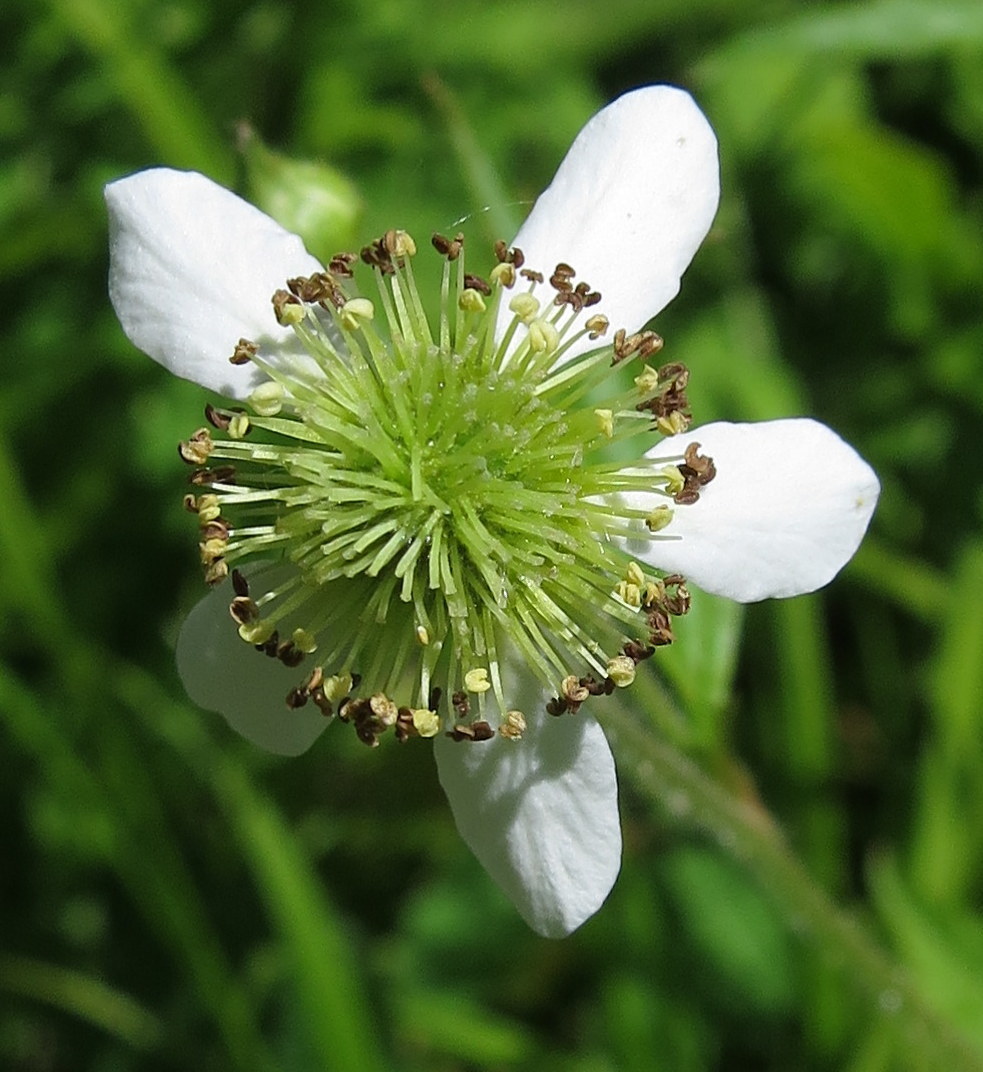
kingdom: Plantae
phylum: Tracheophyta
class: Magnoliopsida
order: Rosales
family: Rosaceae
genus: Geum
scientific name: Geum canadense
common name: White avens
